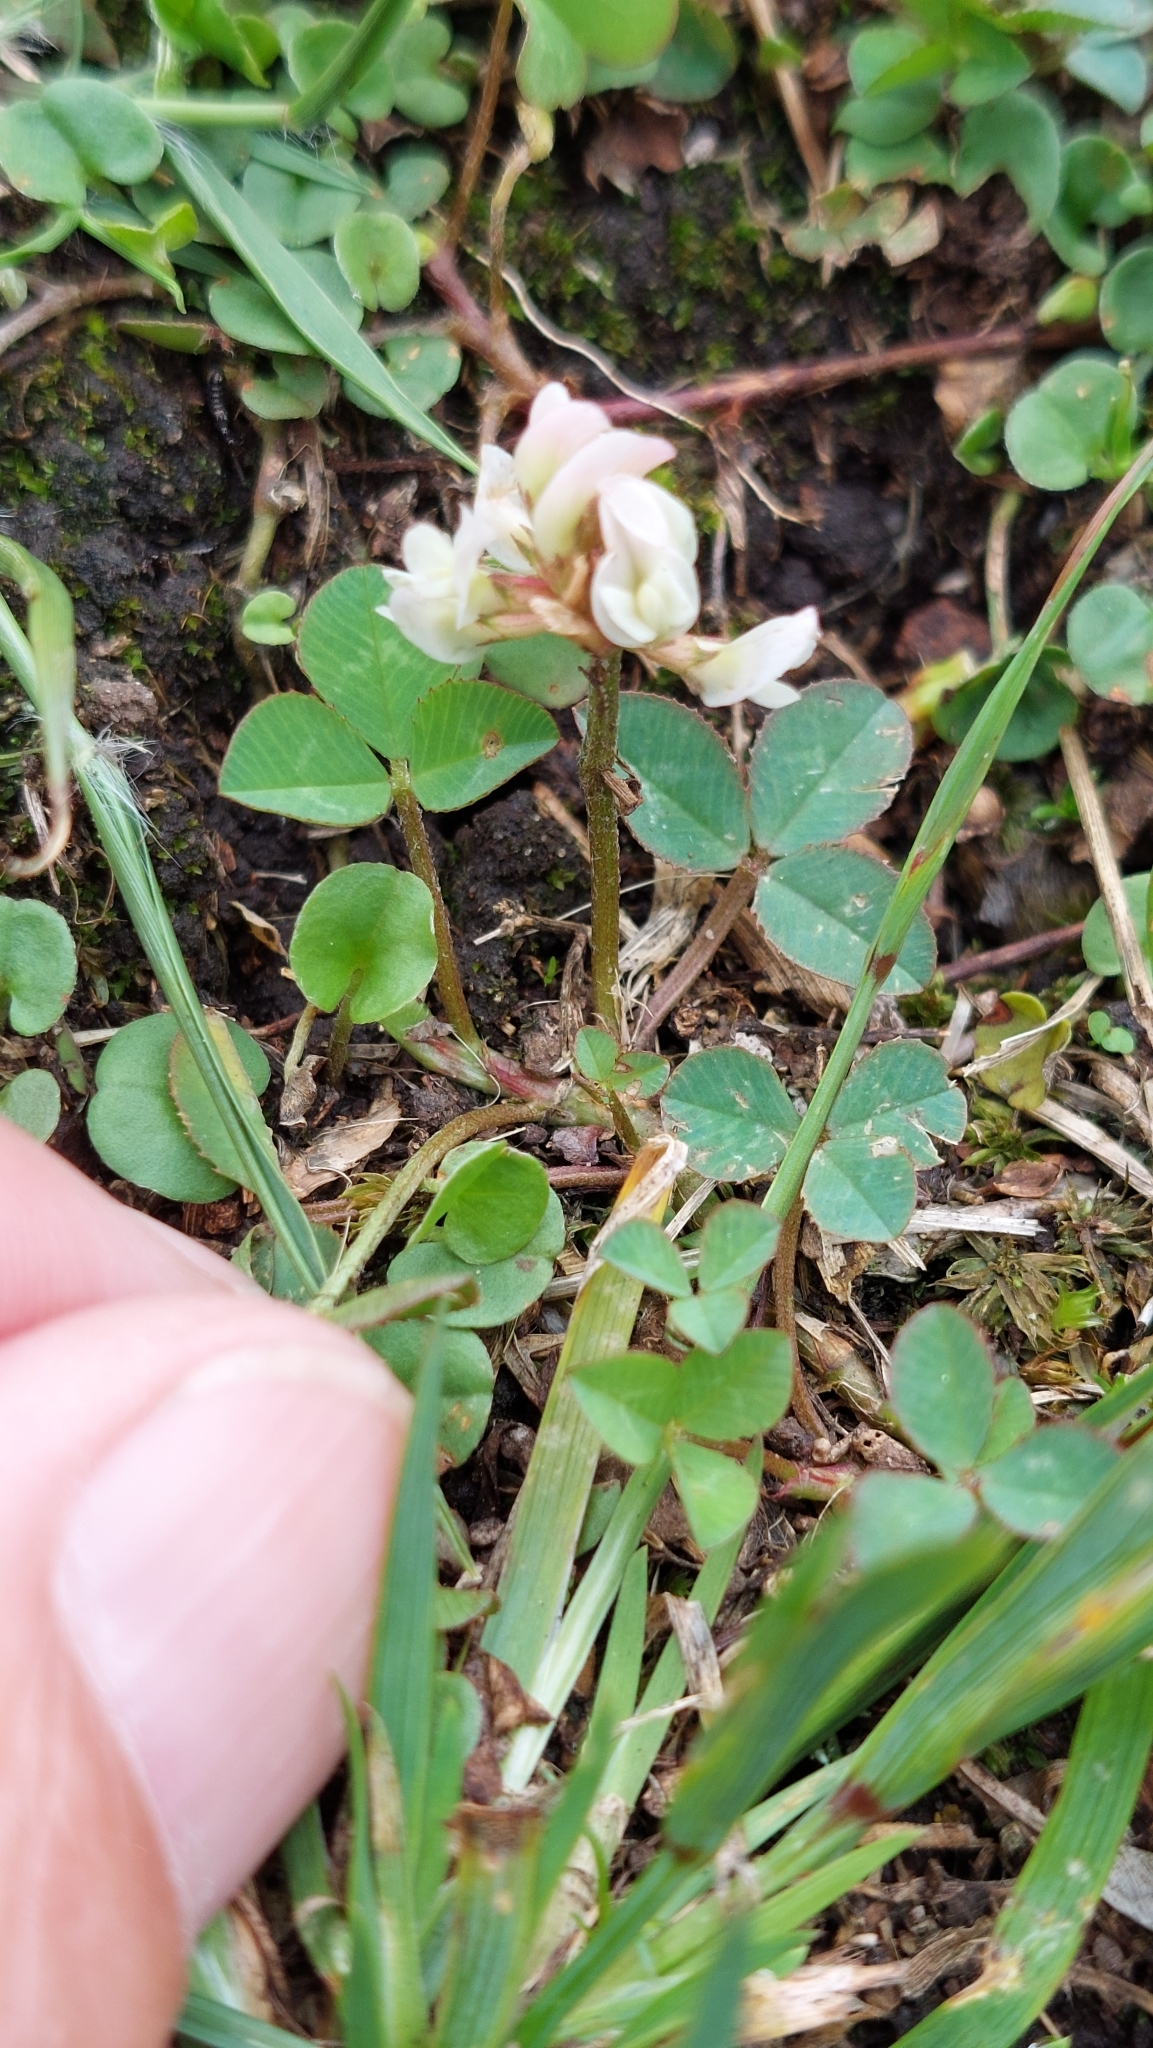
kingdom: Plantae
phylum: Tracheophyta
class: Magnoliopsida
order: Fabales
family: Fabaceae
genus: Trifolium
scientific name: Trifolium repens
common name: White clover
